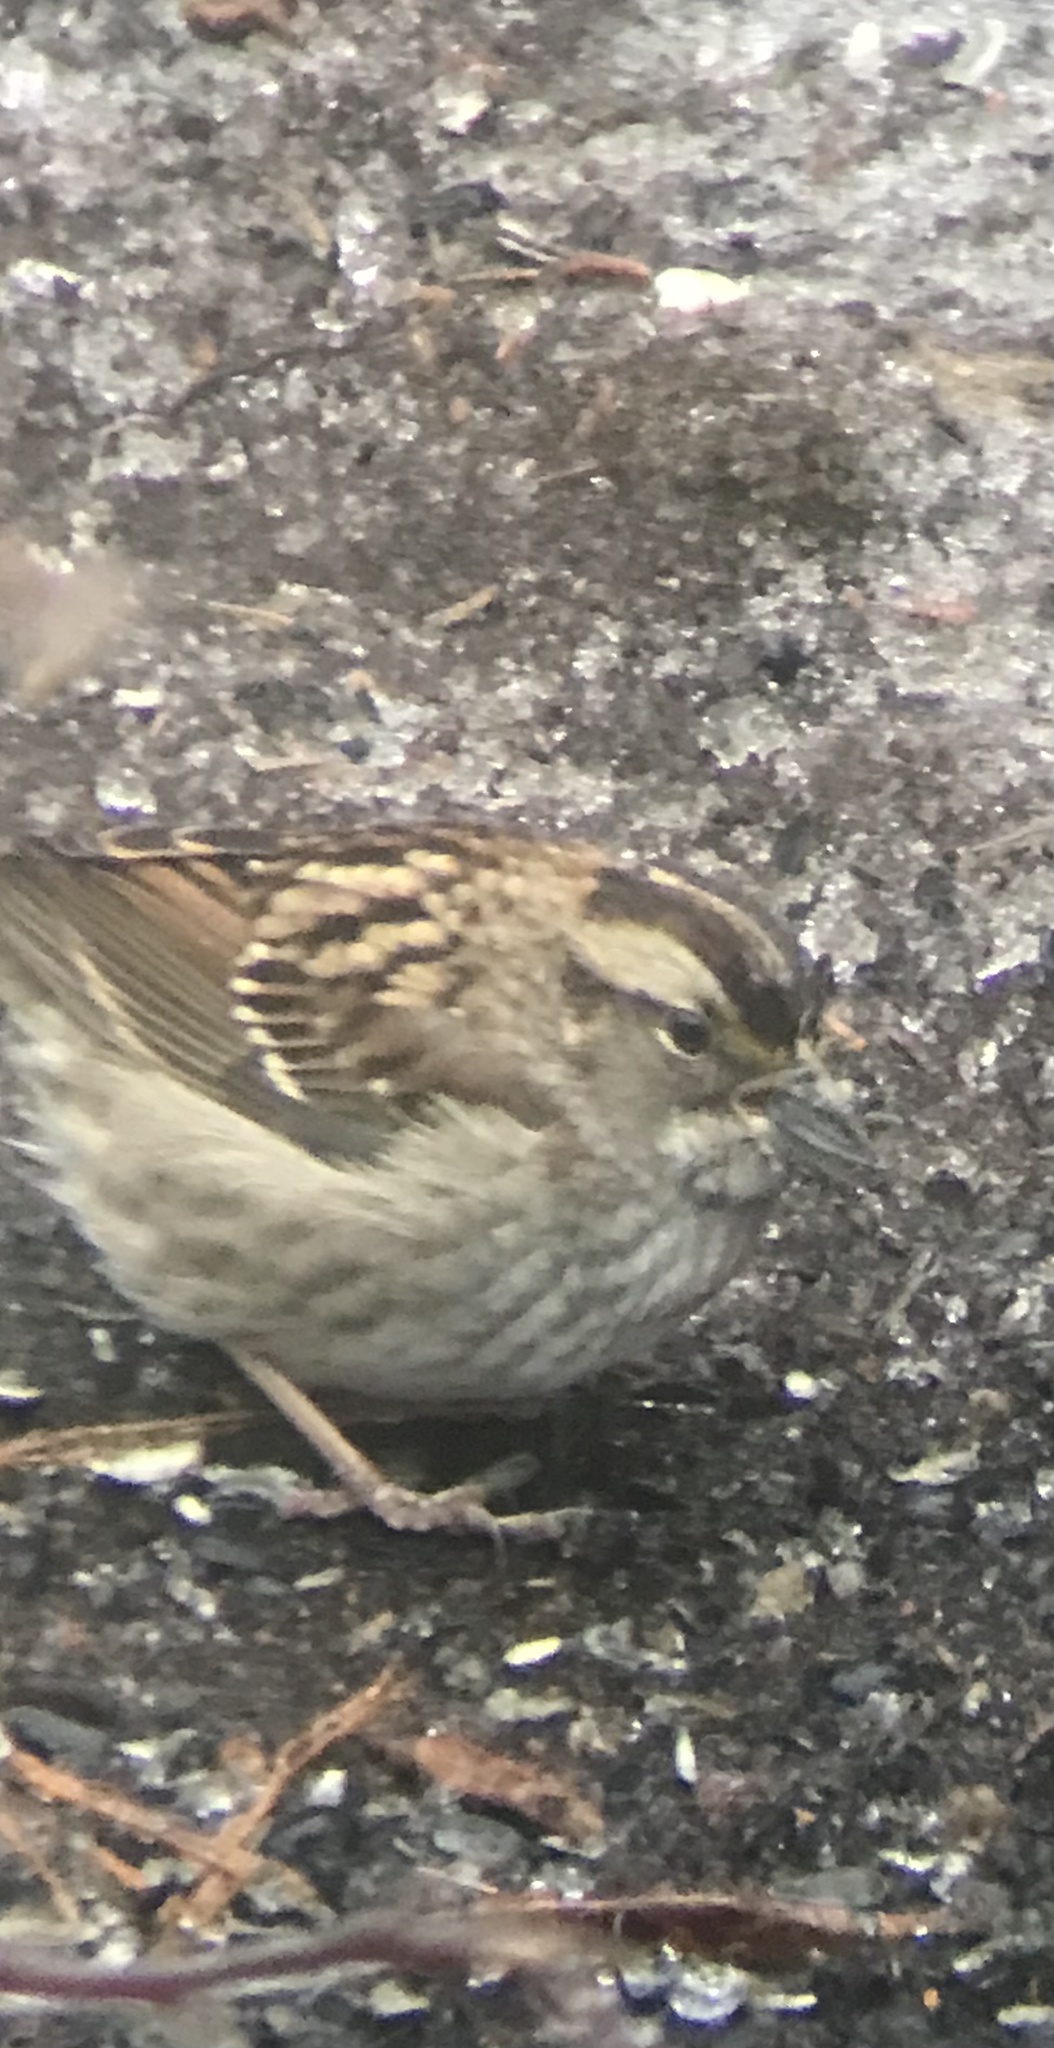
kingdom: Animalia
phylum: Chordata
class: Aves
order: Passeriformes
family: Passerellidae
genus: Zonotrichia
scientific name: Zonotrichia albicollis
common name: White-throated sparrow
